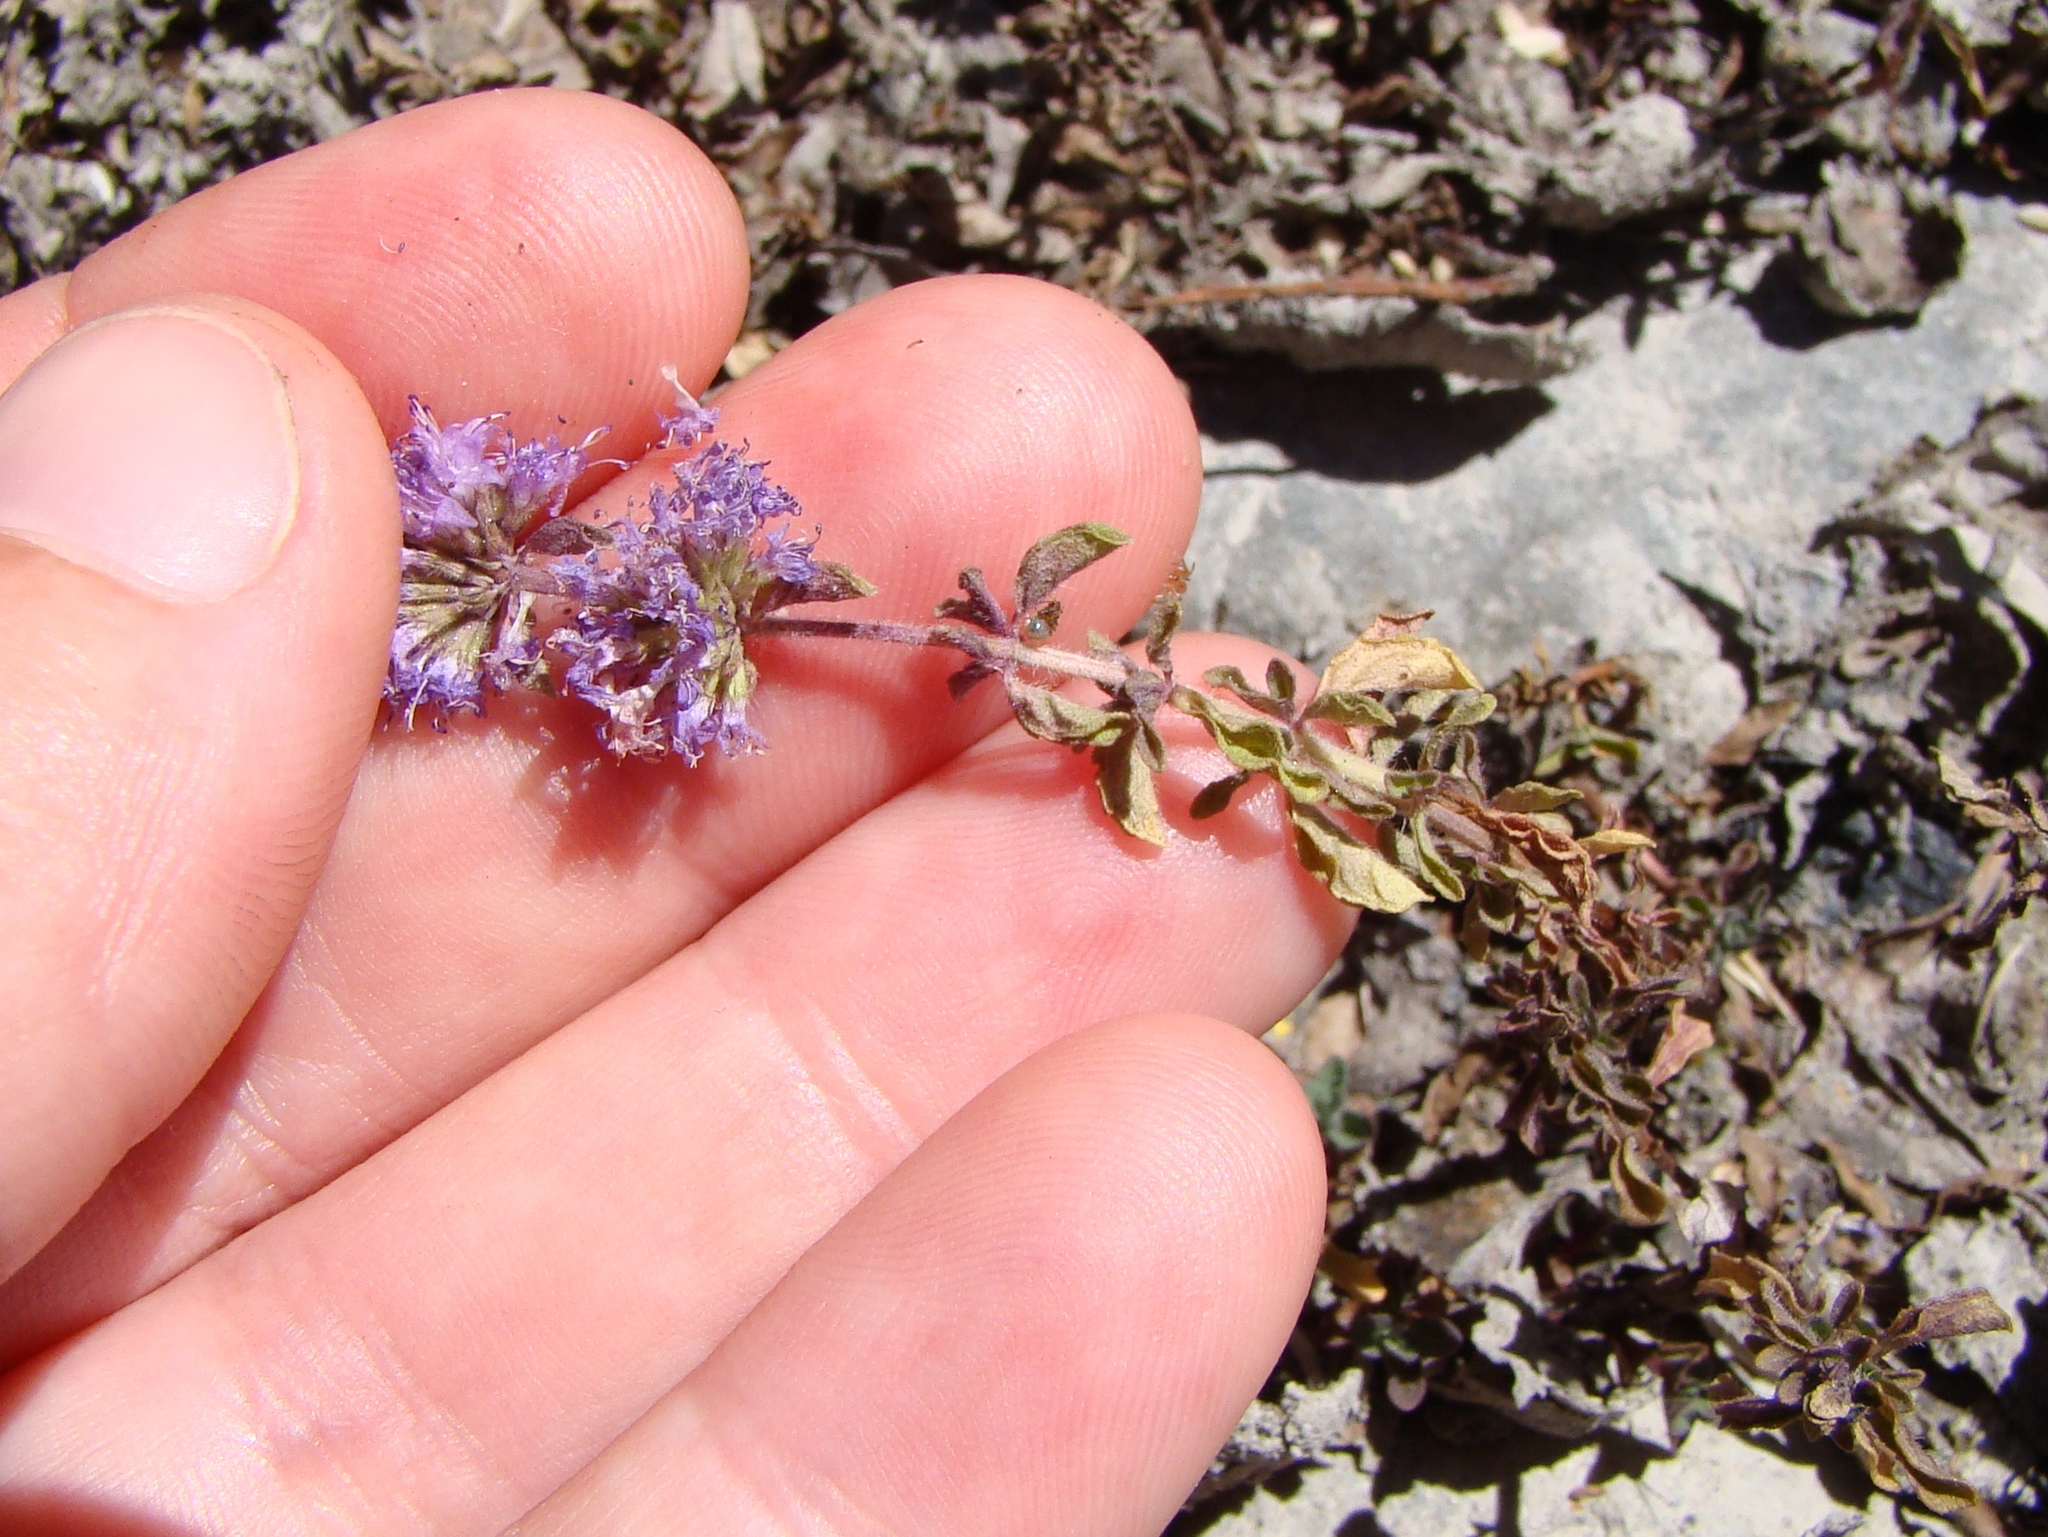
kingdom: Plantae
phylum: Tracheophyta
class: Magnoliopsida
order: Lamiales
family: Lamiaceae
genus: Mentha
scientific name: Mentha pulegium
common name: Pennyroyal
